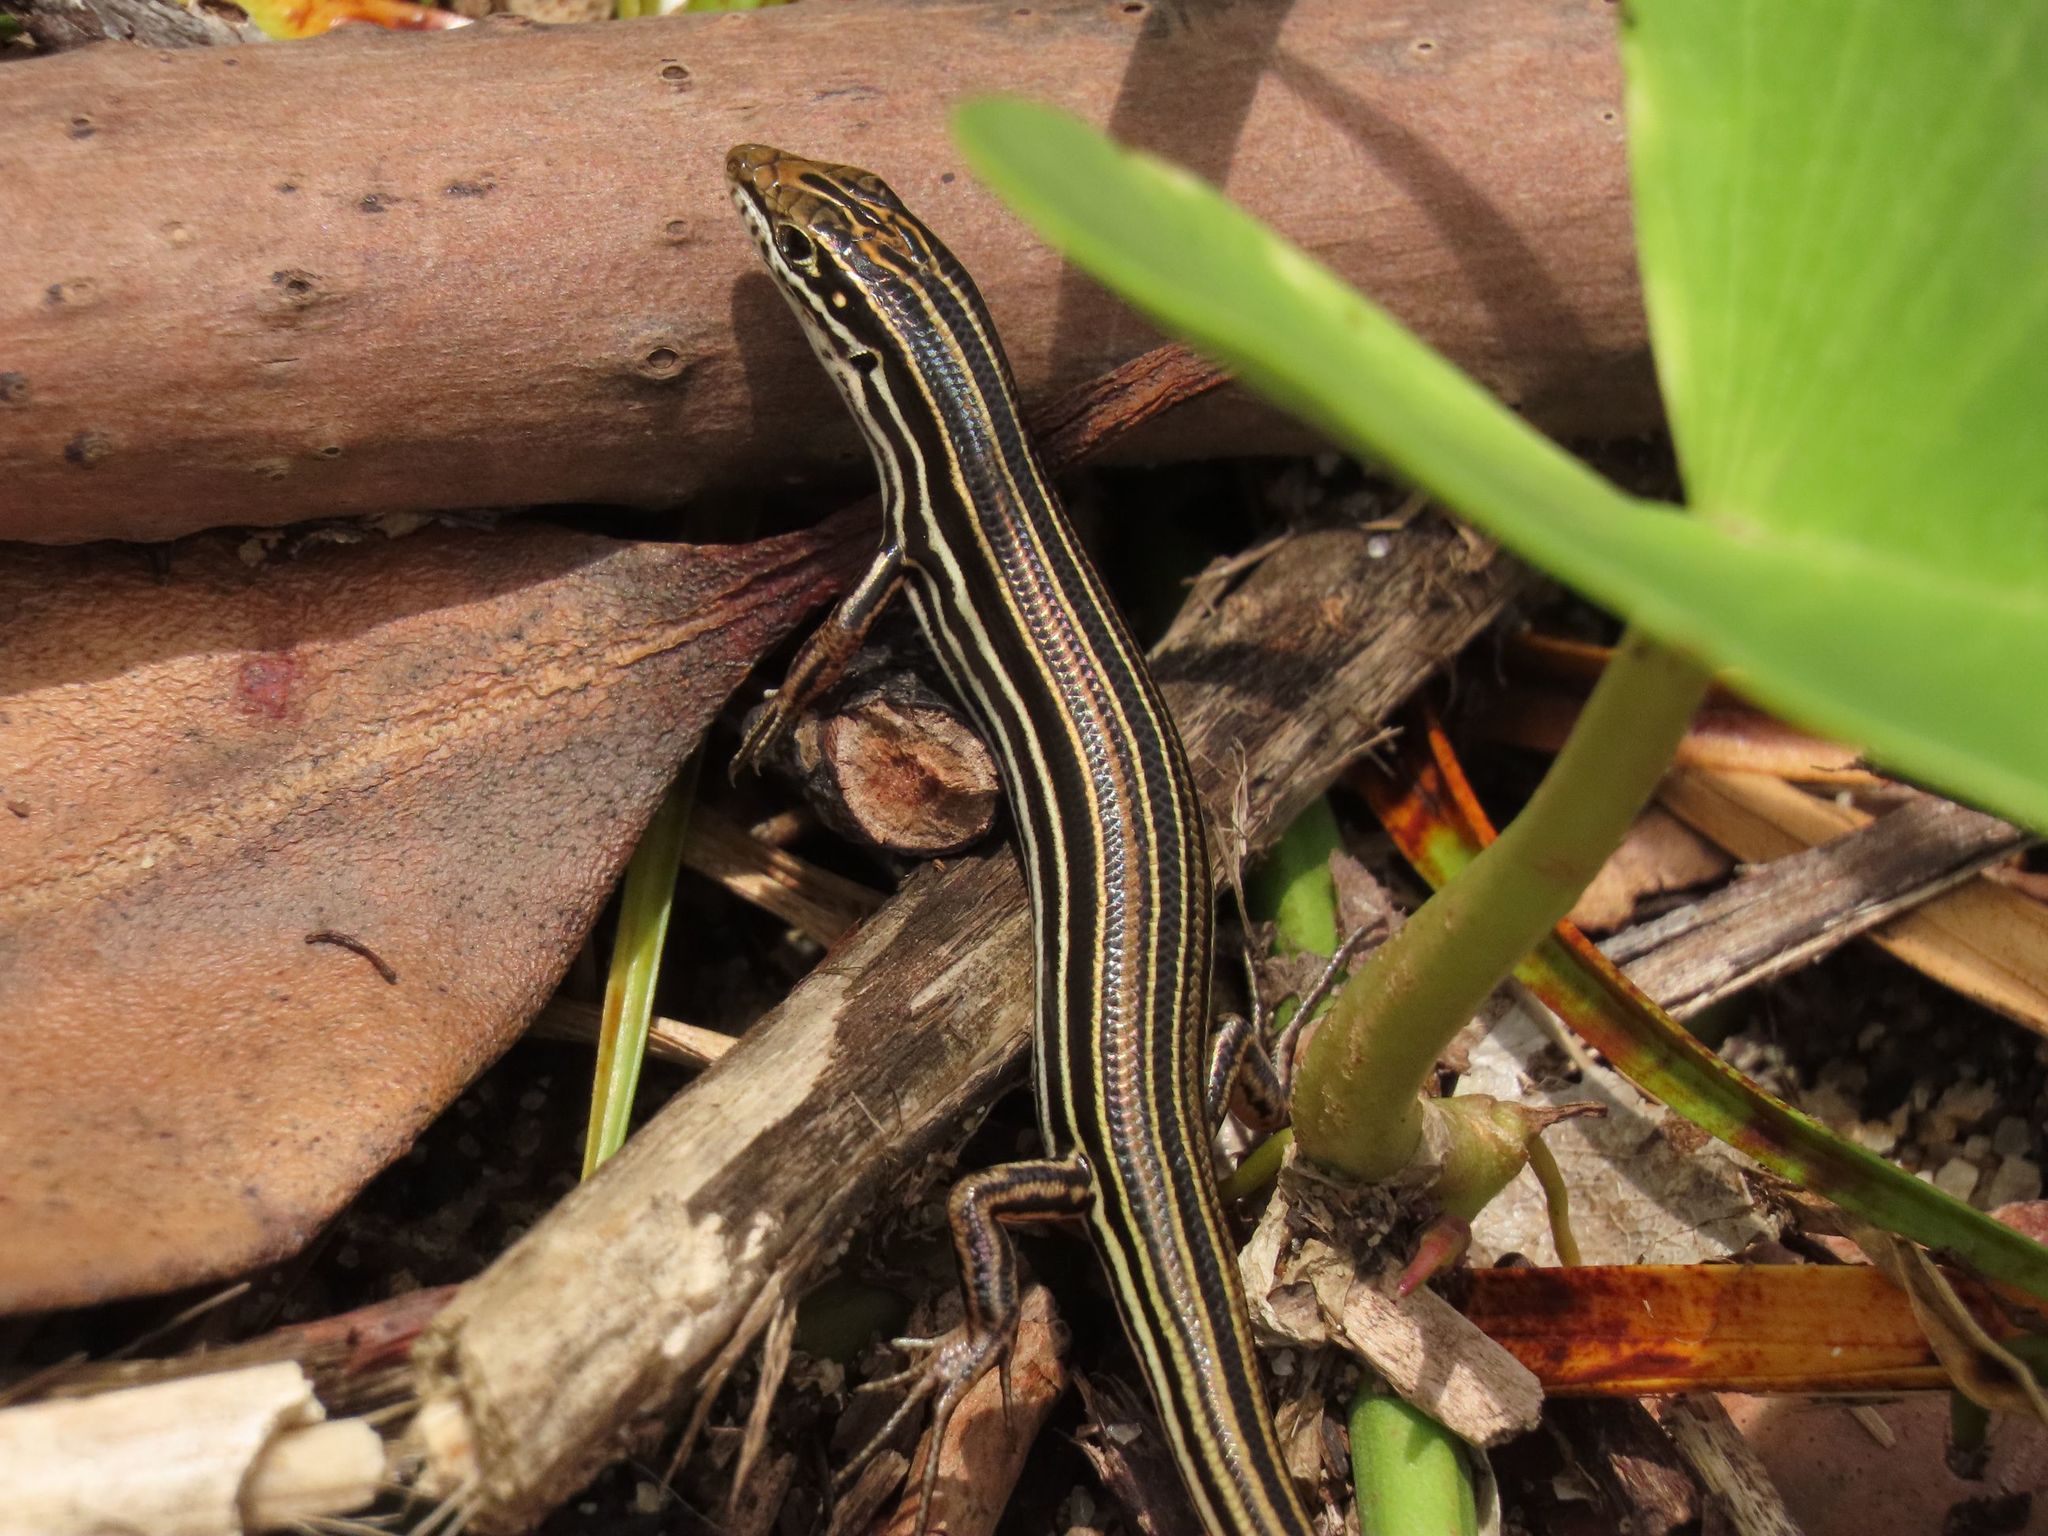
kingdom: Animalia
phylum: Chordata
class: Squamata
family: Scincidae
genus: Ctenotus
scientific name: Ctenotus taeniolatus
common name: Copper-tailed skink
